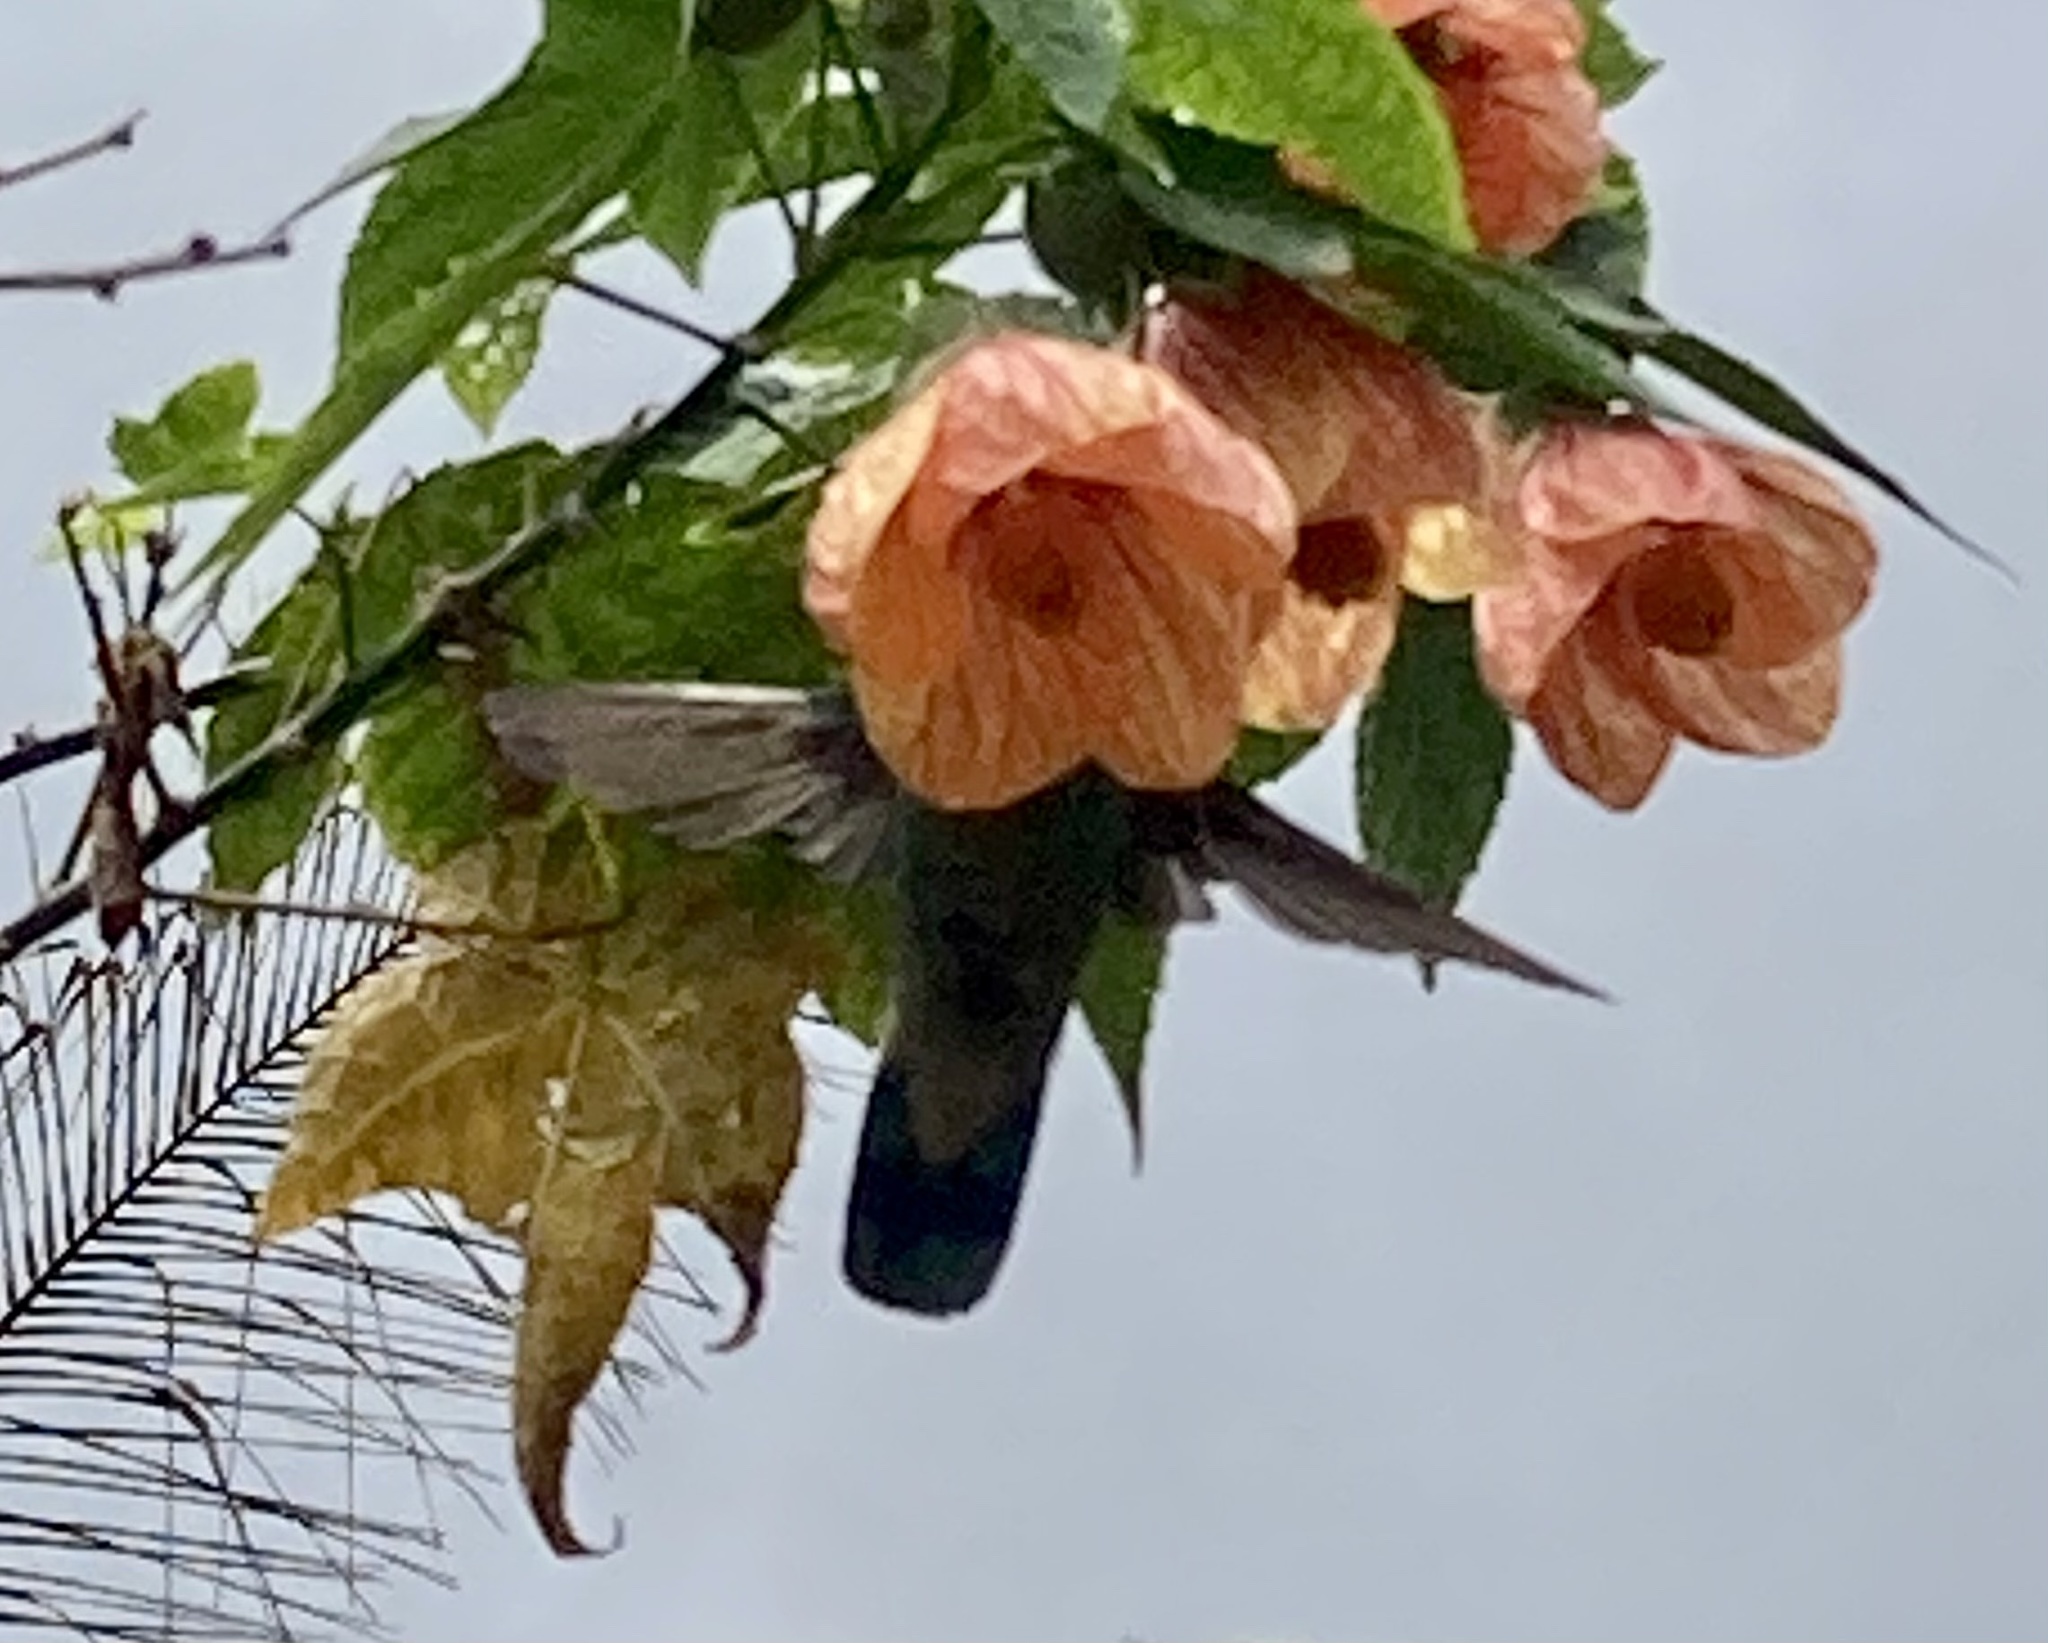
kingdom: Animalia
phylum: Chordata
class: Aves
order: Apodiformes
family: Trochilidae
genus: Colibri
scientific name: Colibri coruscans
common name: Sparkling violetear
